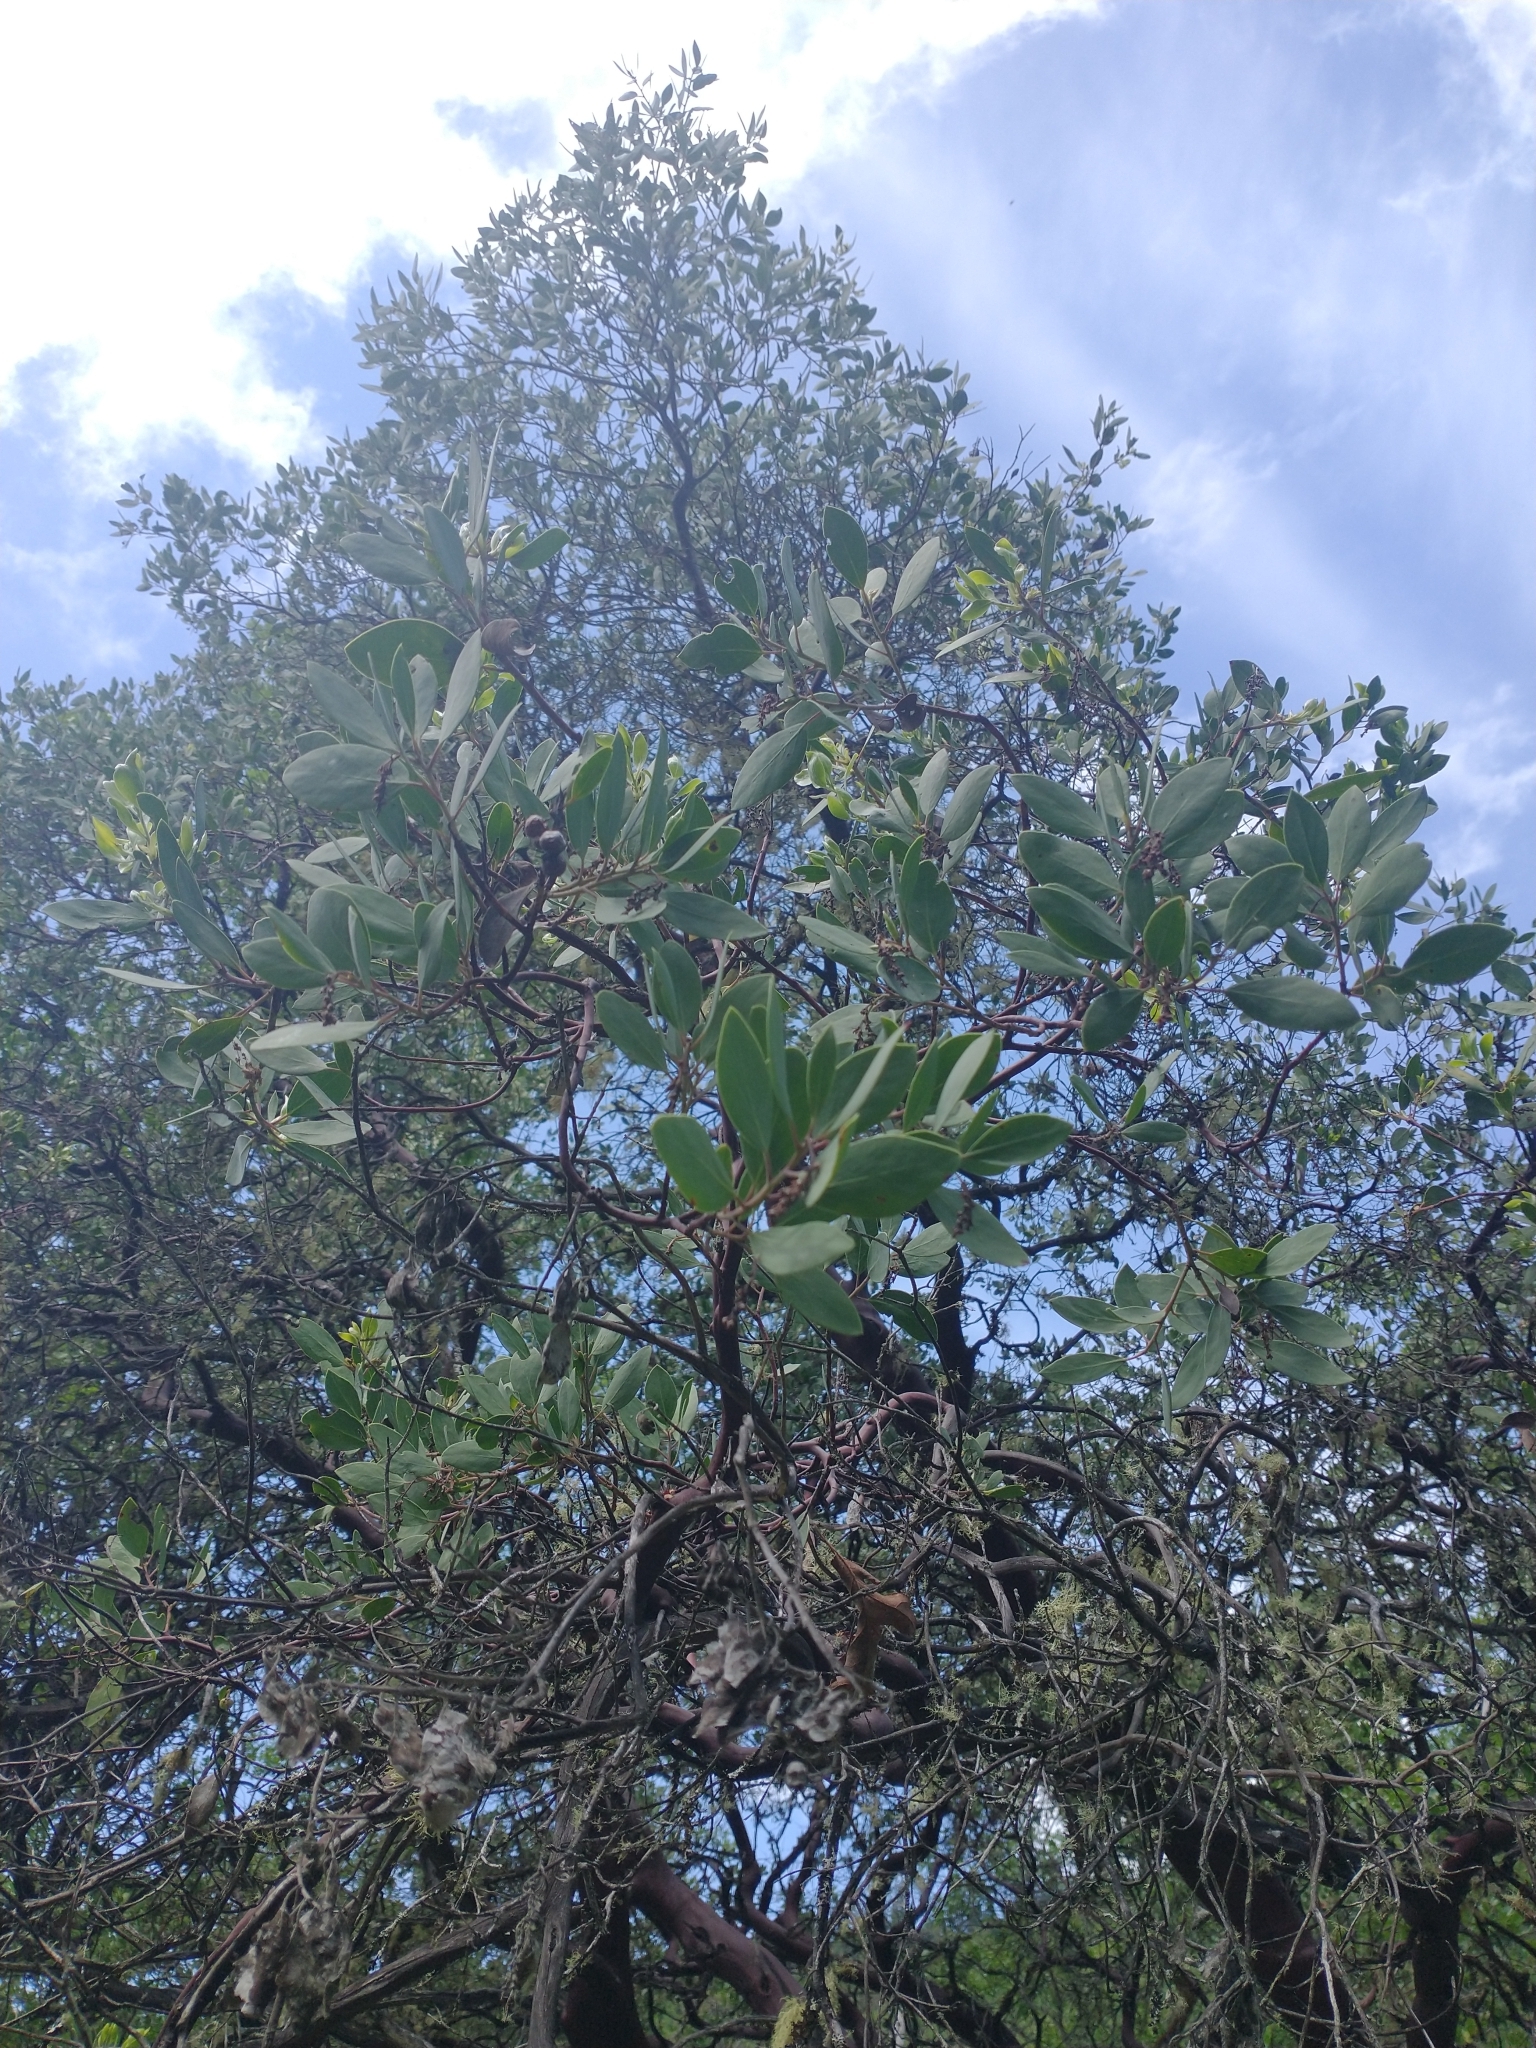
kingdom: Plantae
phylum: Tracheophyta
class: Magnoliopsida
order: Ericales
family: Ericaceae
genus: Arctostaphylos
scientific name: Arctostaphylos manzanita
